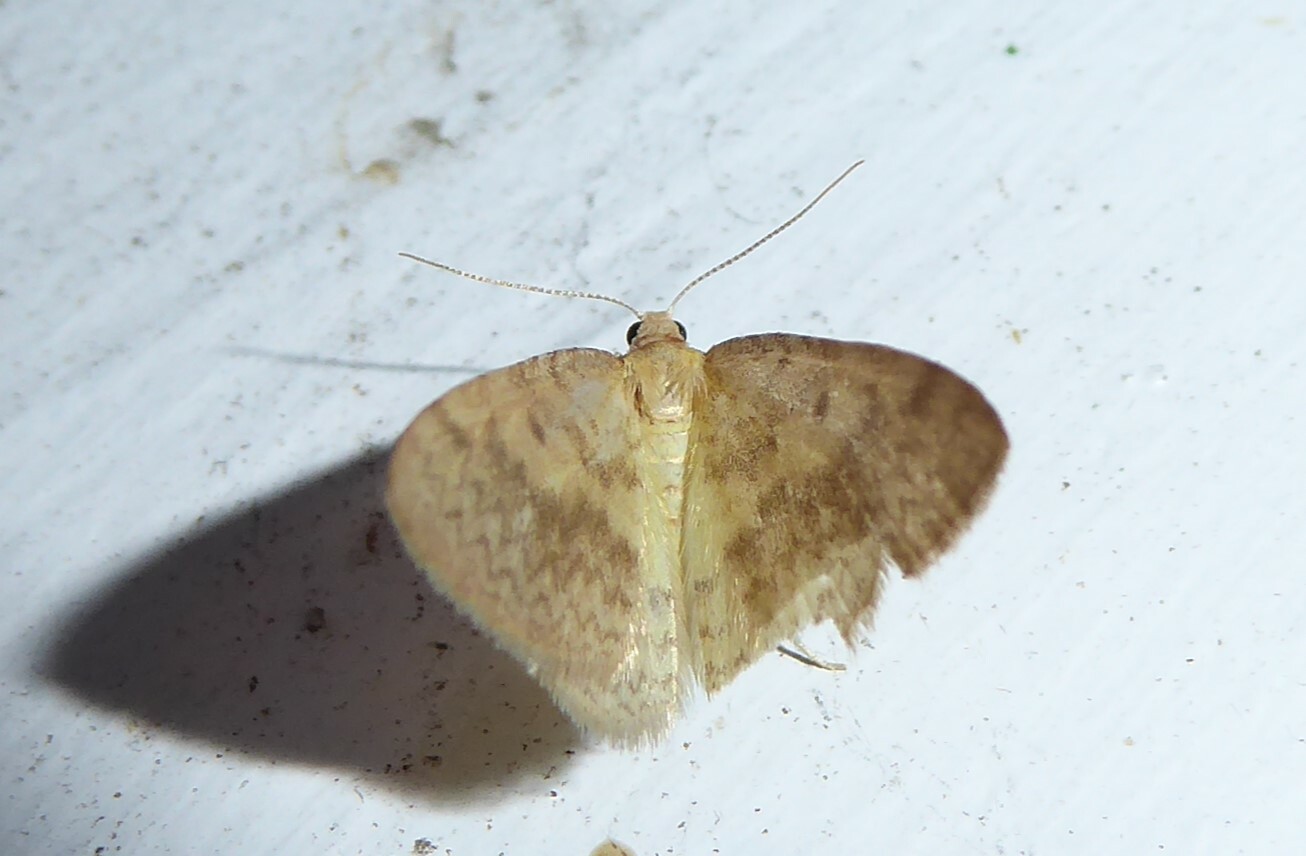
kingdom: Animalia
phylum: Arthropoda
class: Insecta
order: Lepidoptera
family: Geometridae
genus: Epiphryne
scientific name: Epiphryne undosata
